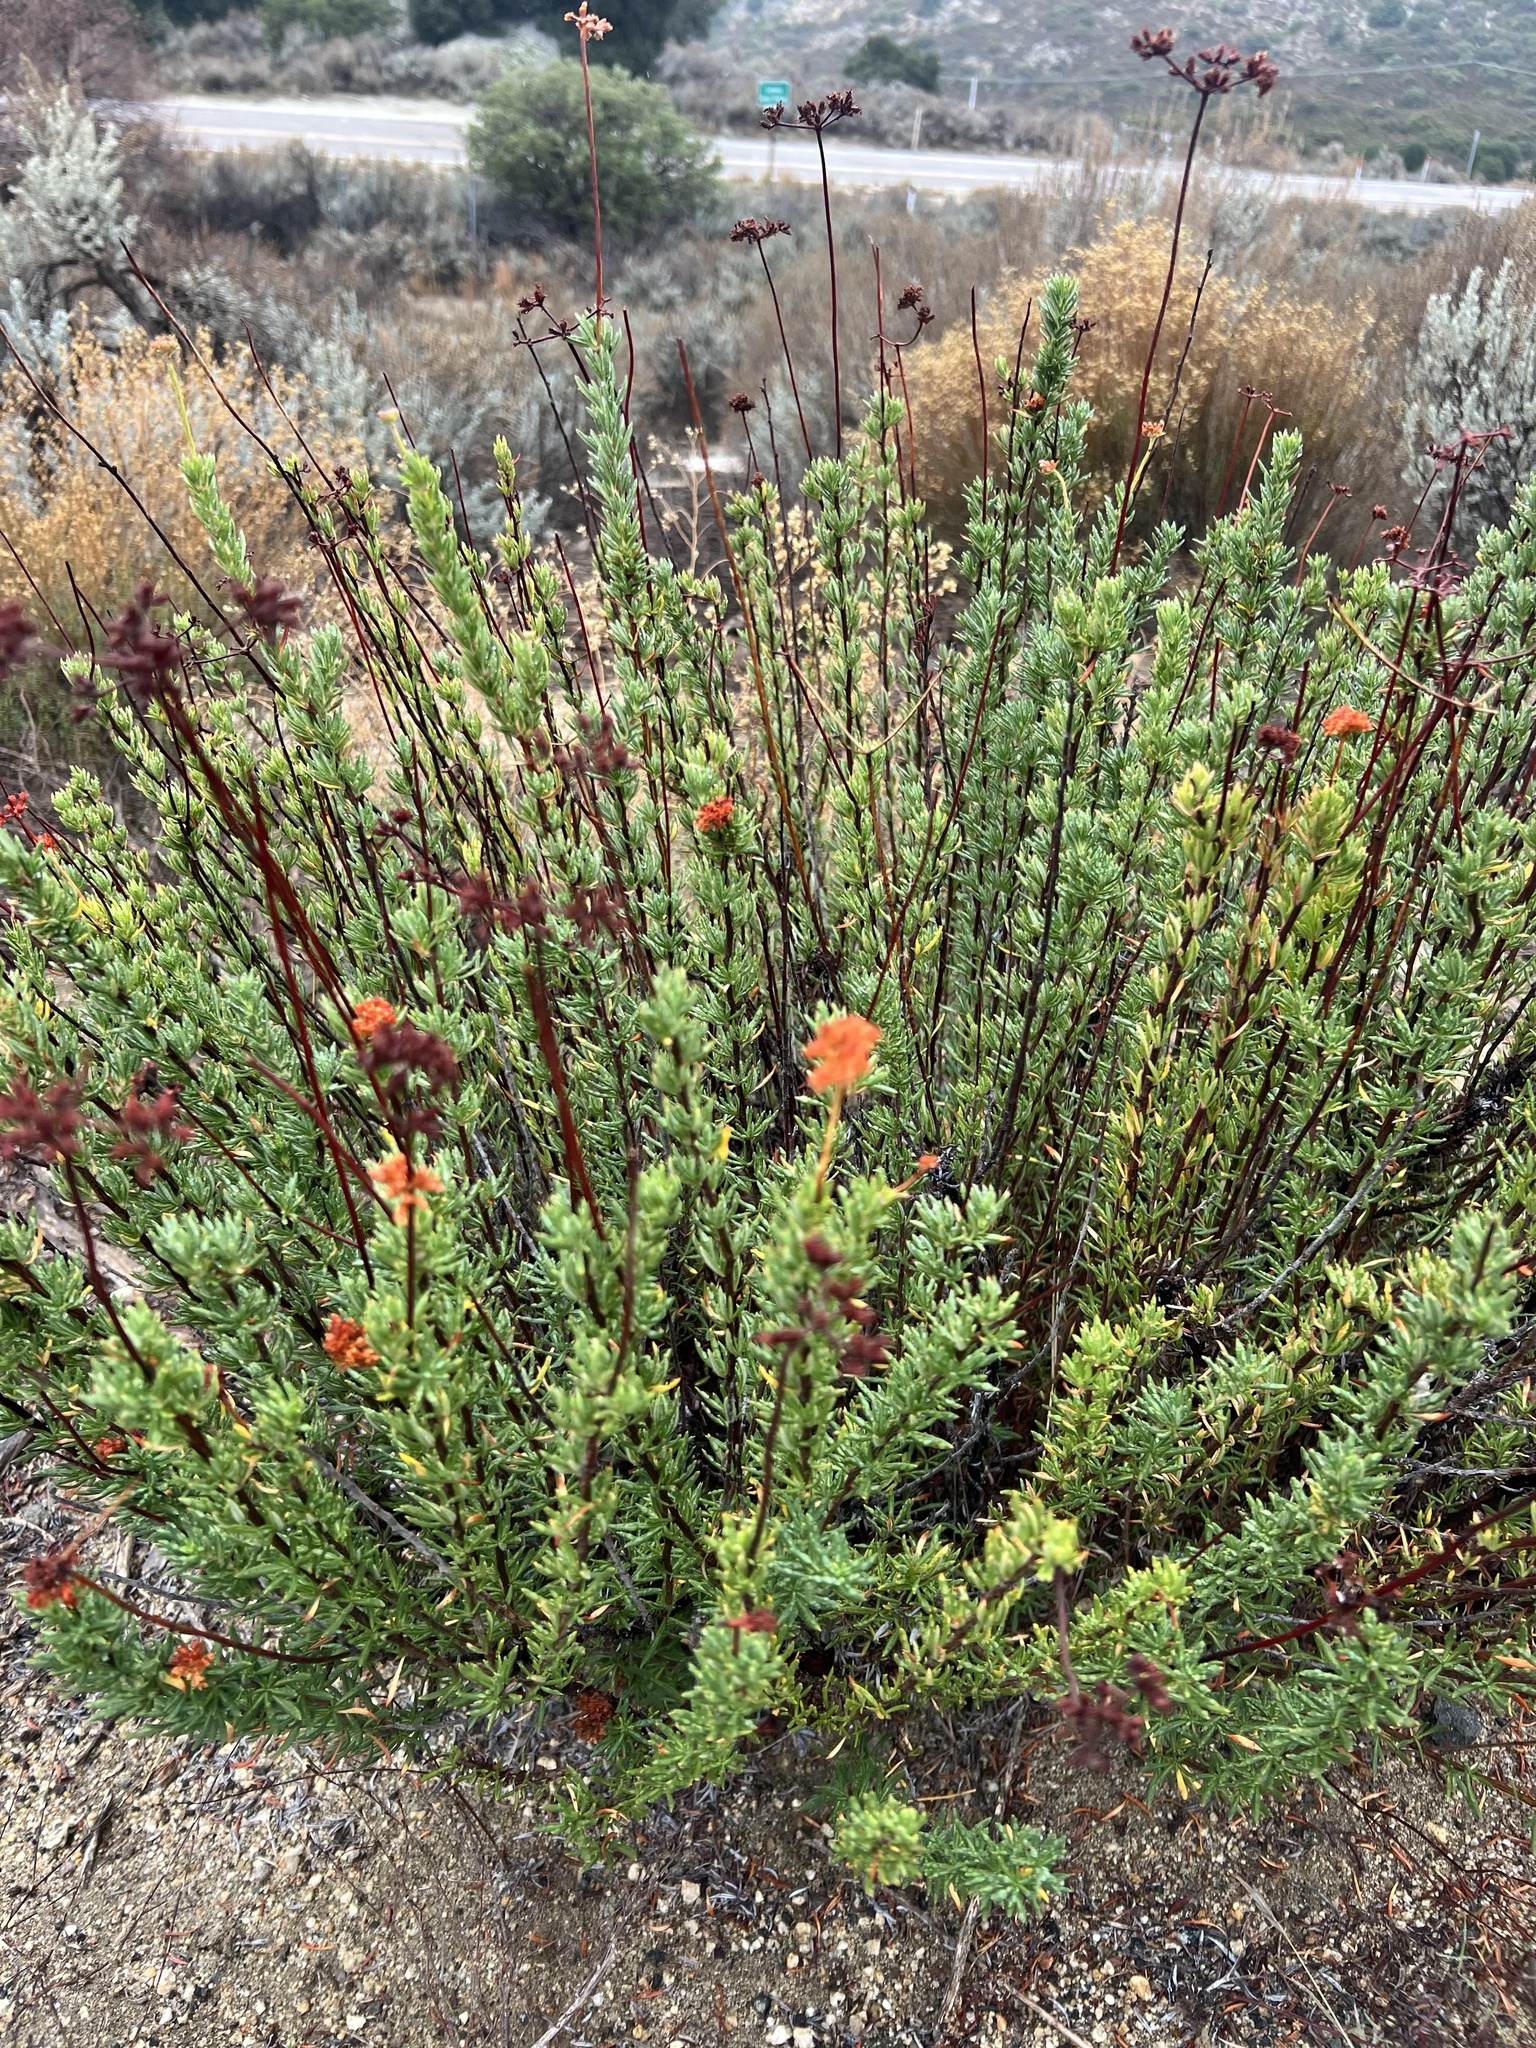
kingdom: Plantae
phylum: Tracheophyta
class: Magnoliopsida
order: Caryophyllales
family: Polygonaceae
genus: Eriogonum
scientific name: Eriogonum fasciculatum
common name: California wild buckwheat
